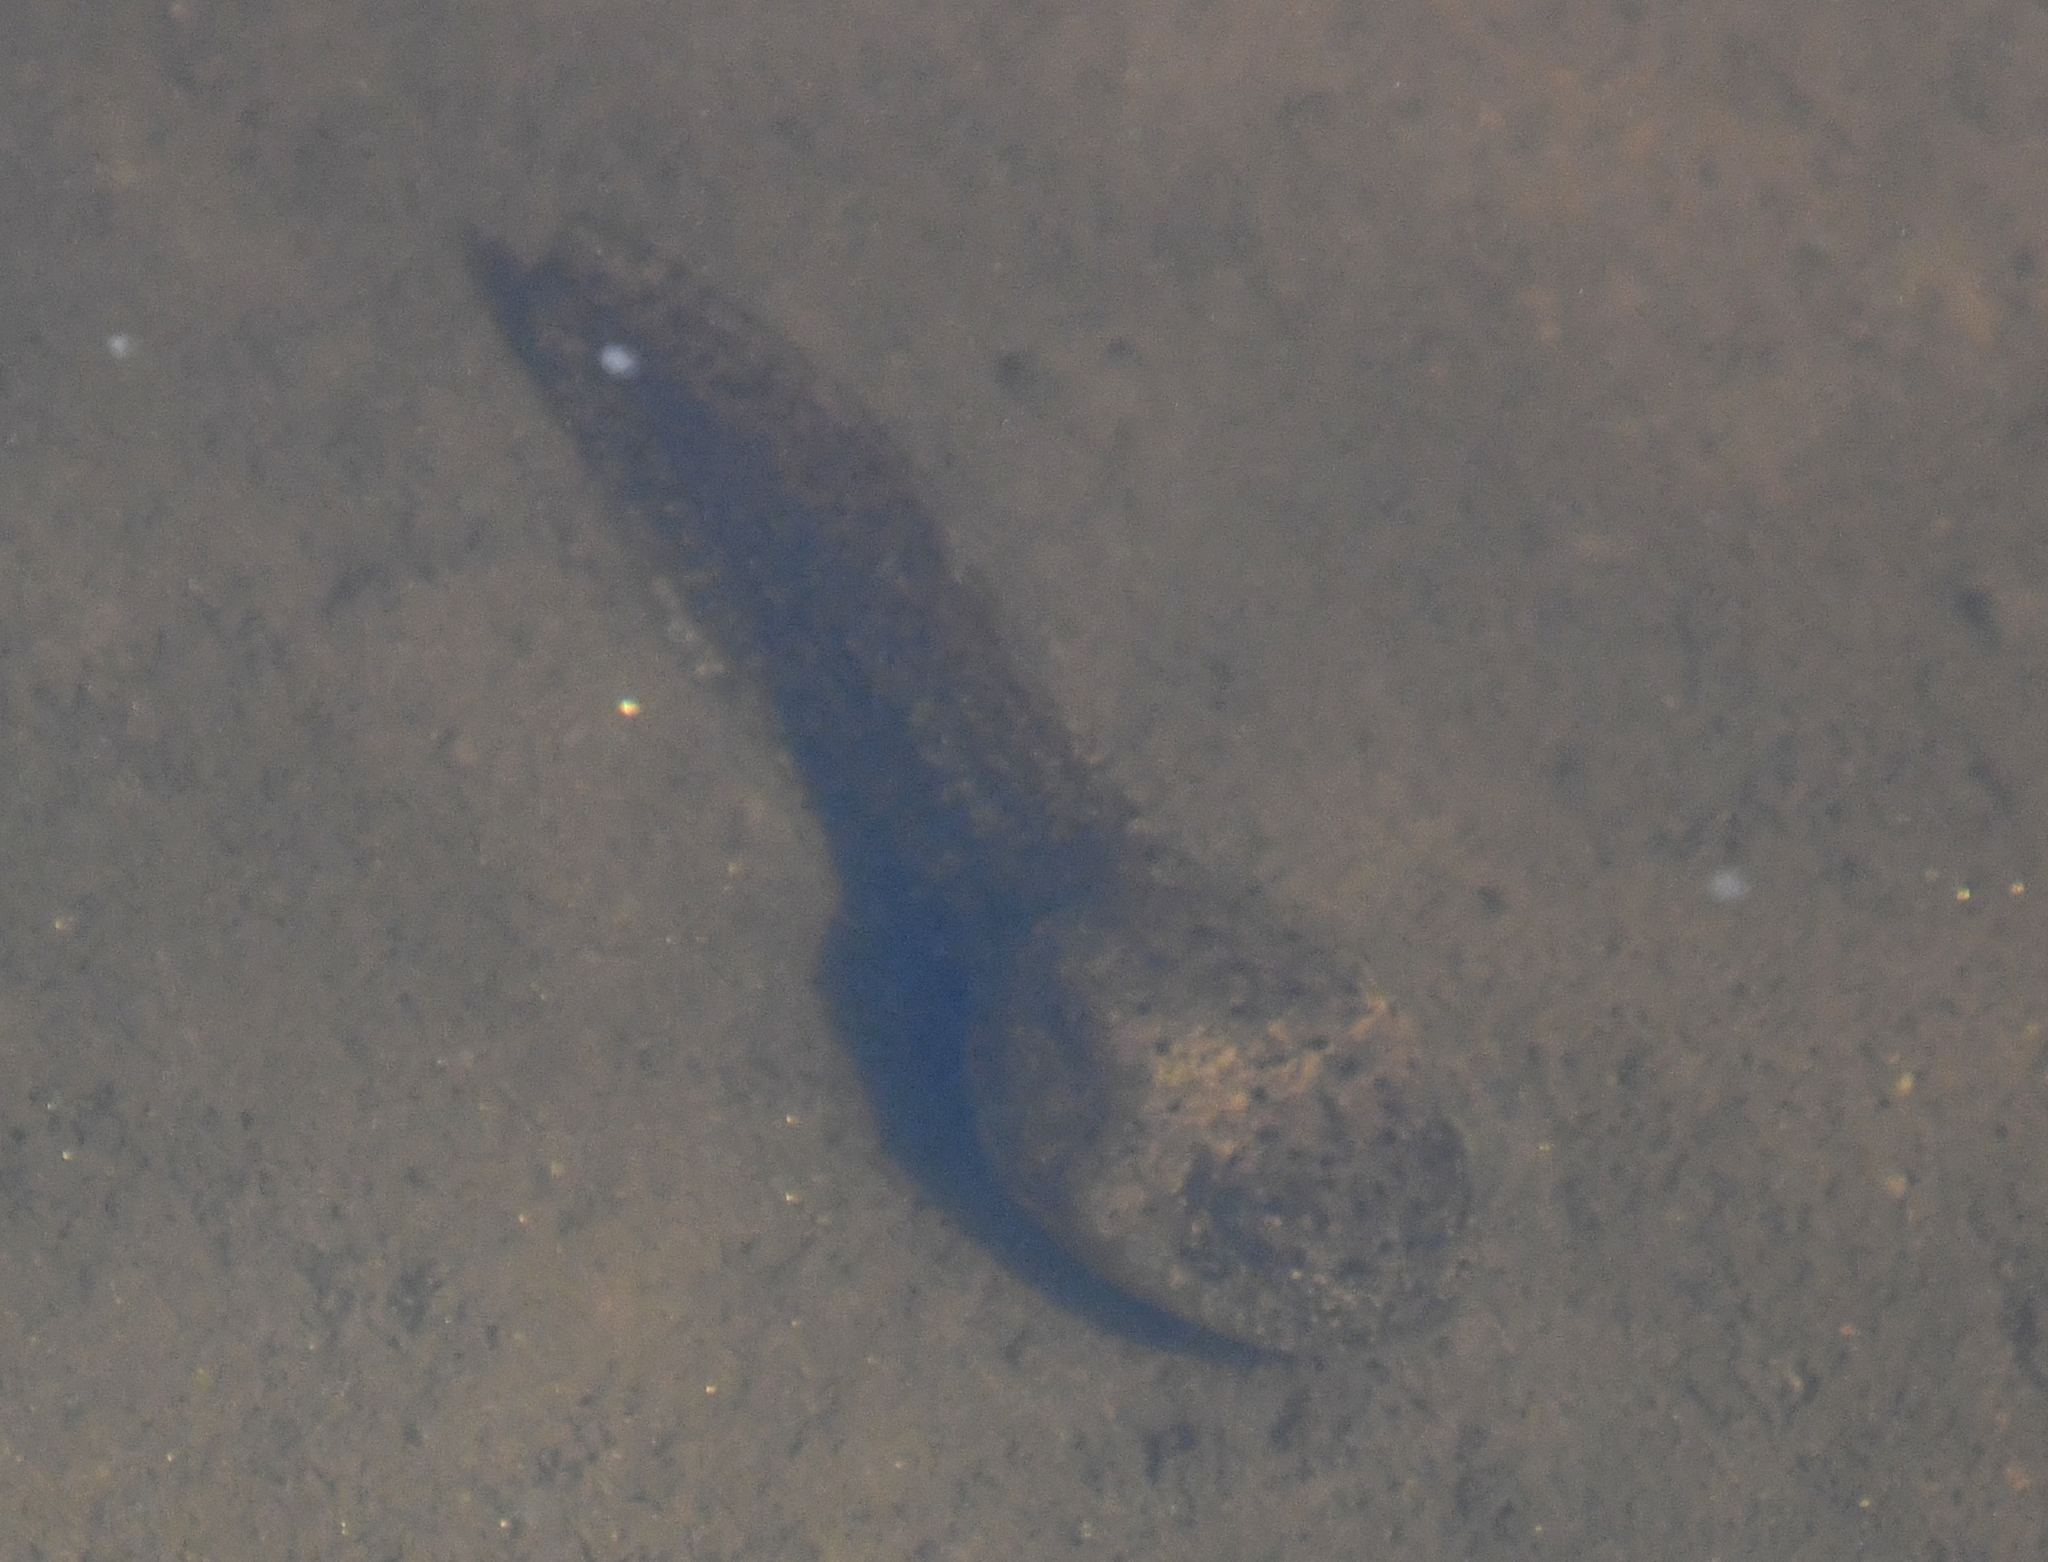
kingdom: Animalia
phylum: Chordata
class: Amphibia
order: Anura
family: Ranidae
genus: Lithobates
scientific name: Lithobates catesbeianus
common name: American bullfrog
